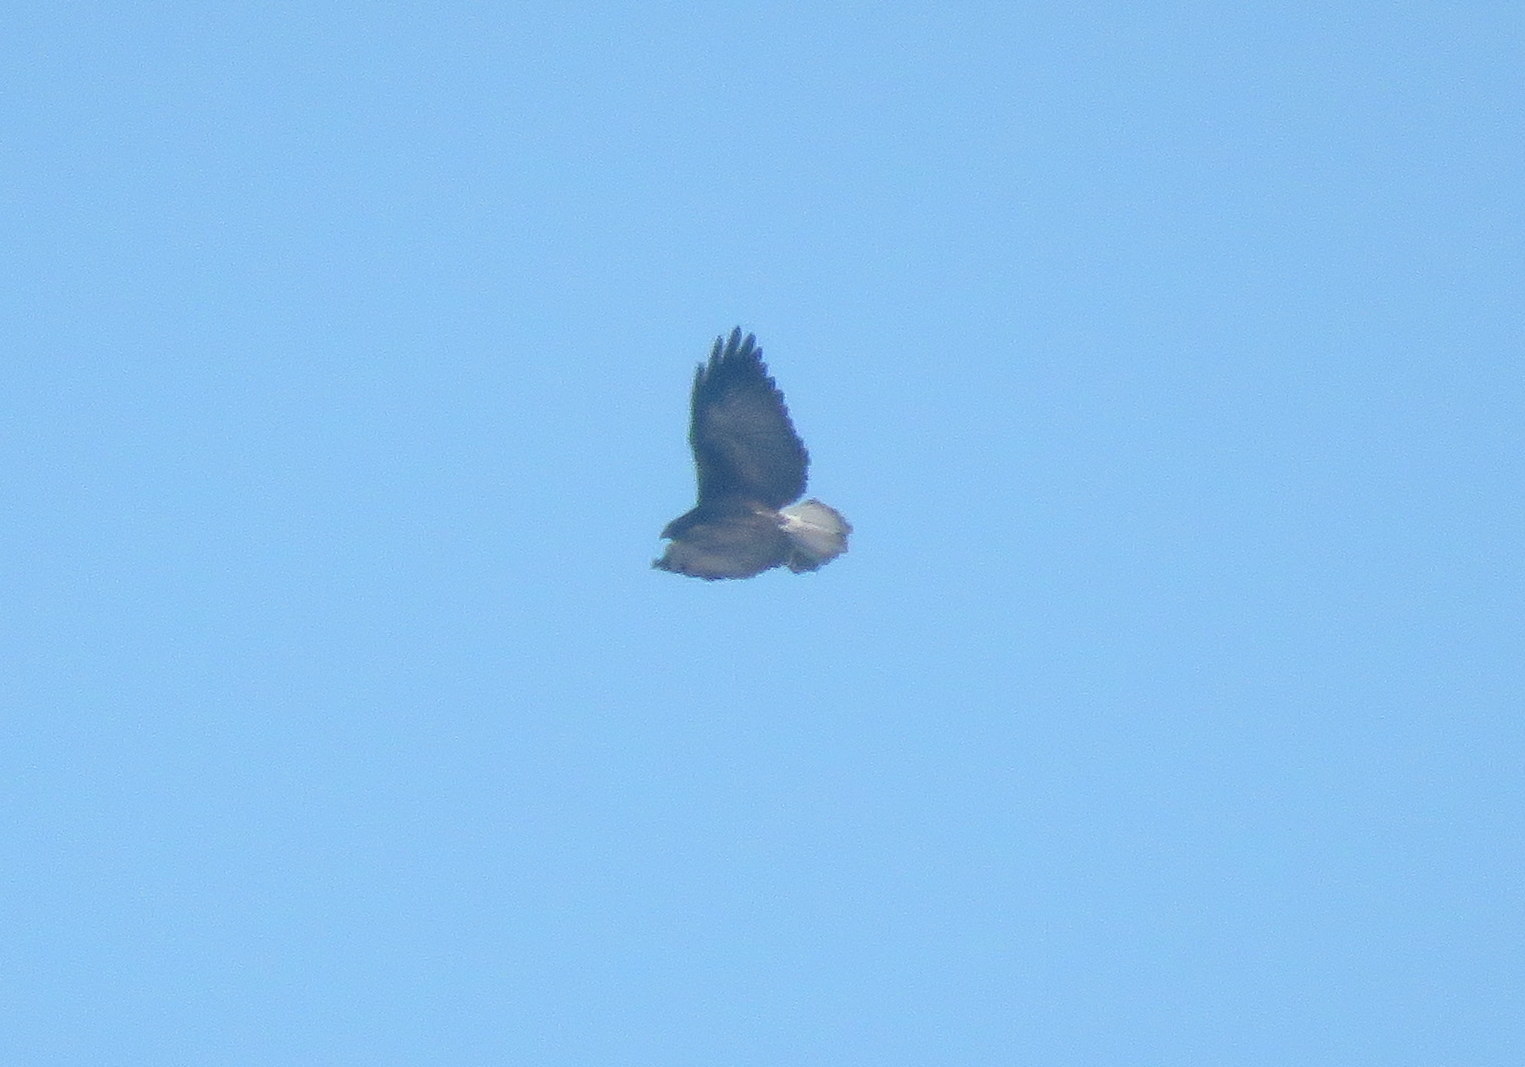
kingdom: Animalia
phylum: Chordata
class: Aves
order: Accipitriformes
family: Accipitridae
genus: Buteo
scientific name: Buteo albicaudatus
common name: White-tailed hawk
